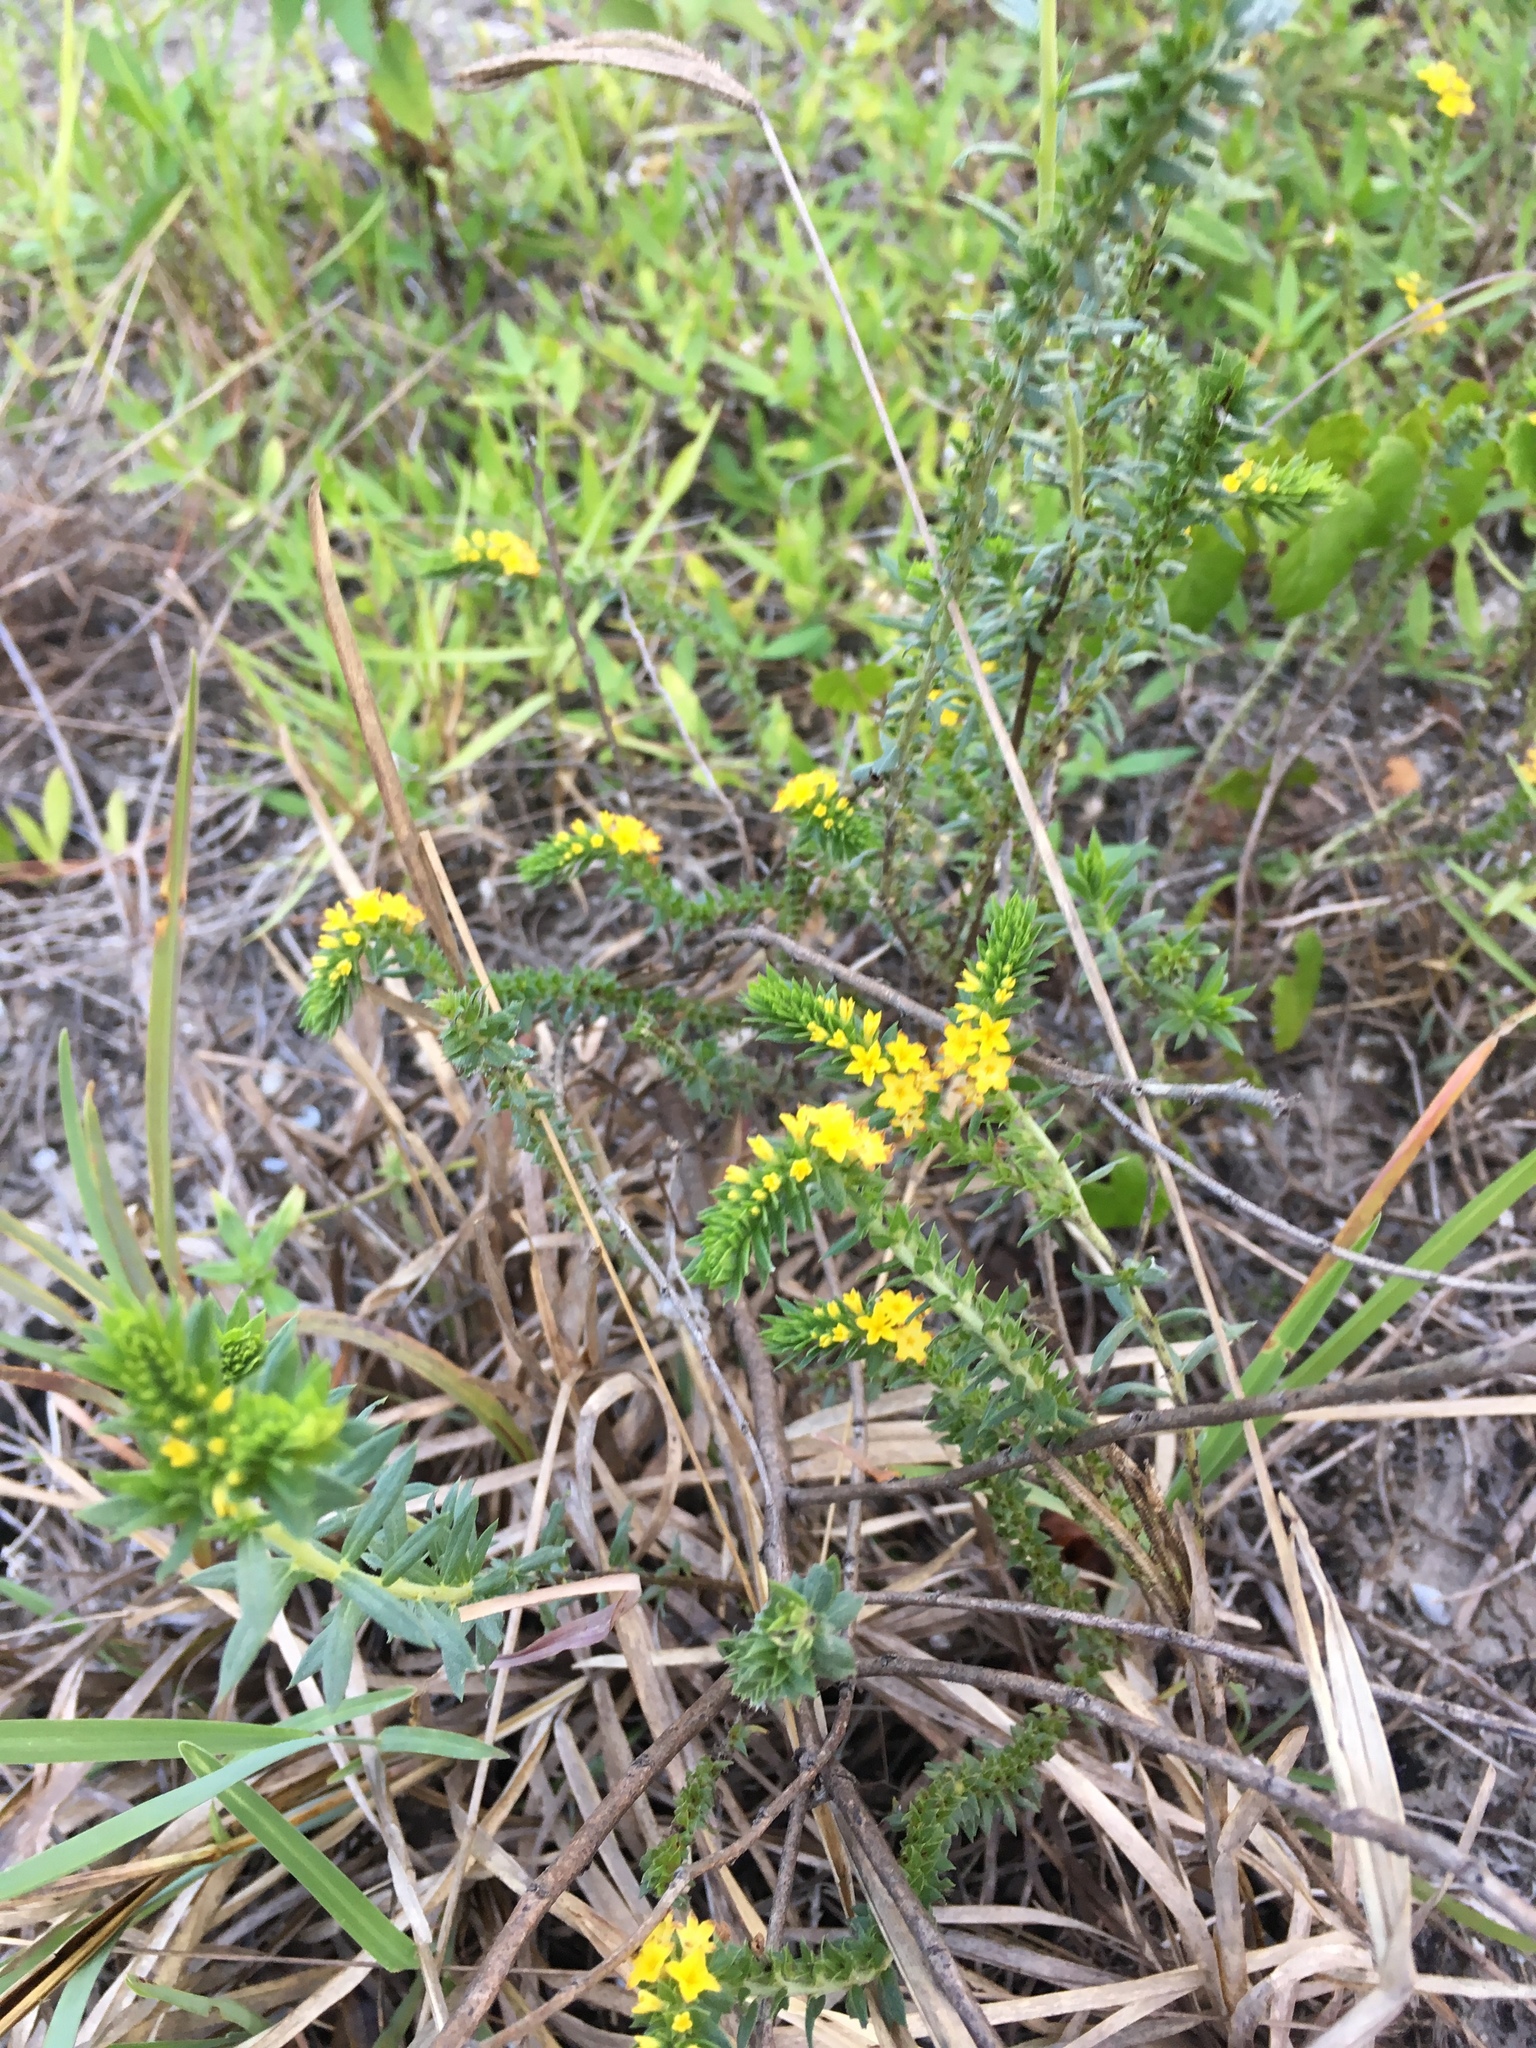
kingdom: Plantae
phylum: Tracheophyta
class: Magnoliopsida
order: Boraginales
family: Heliotropiaceae
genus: Euploca
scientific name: Euploca polyphylla
